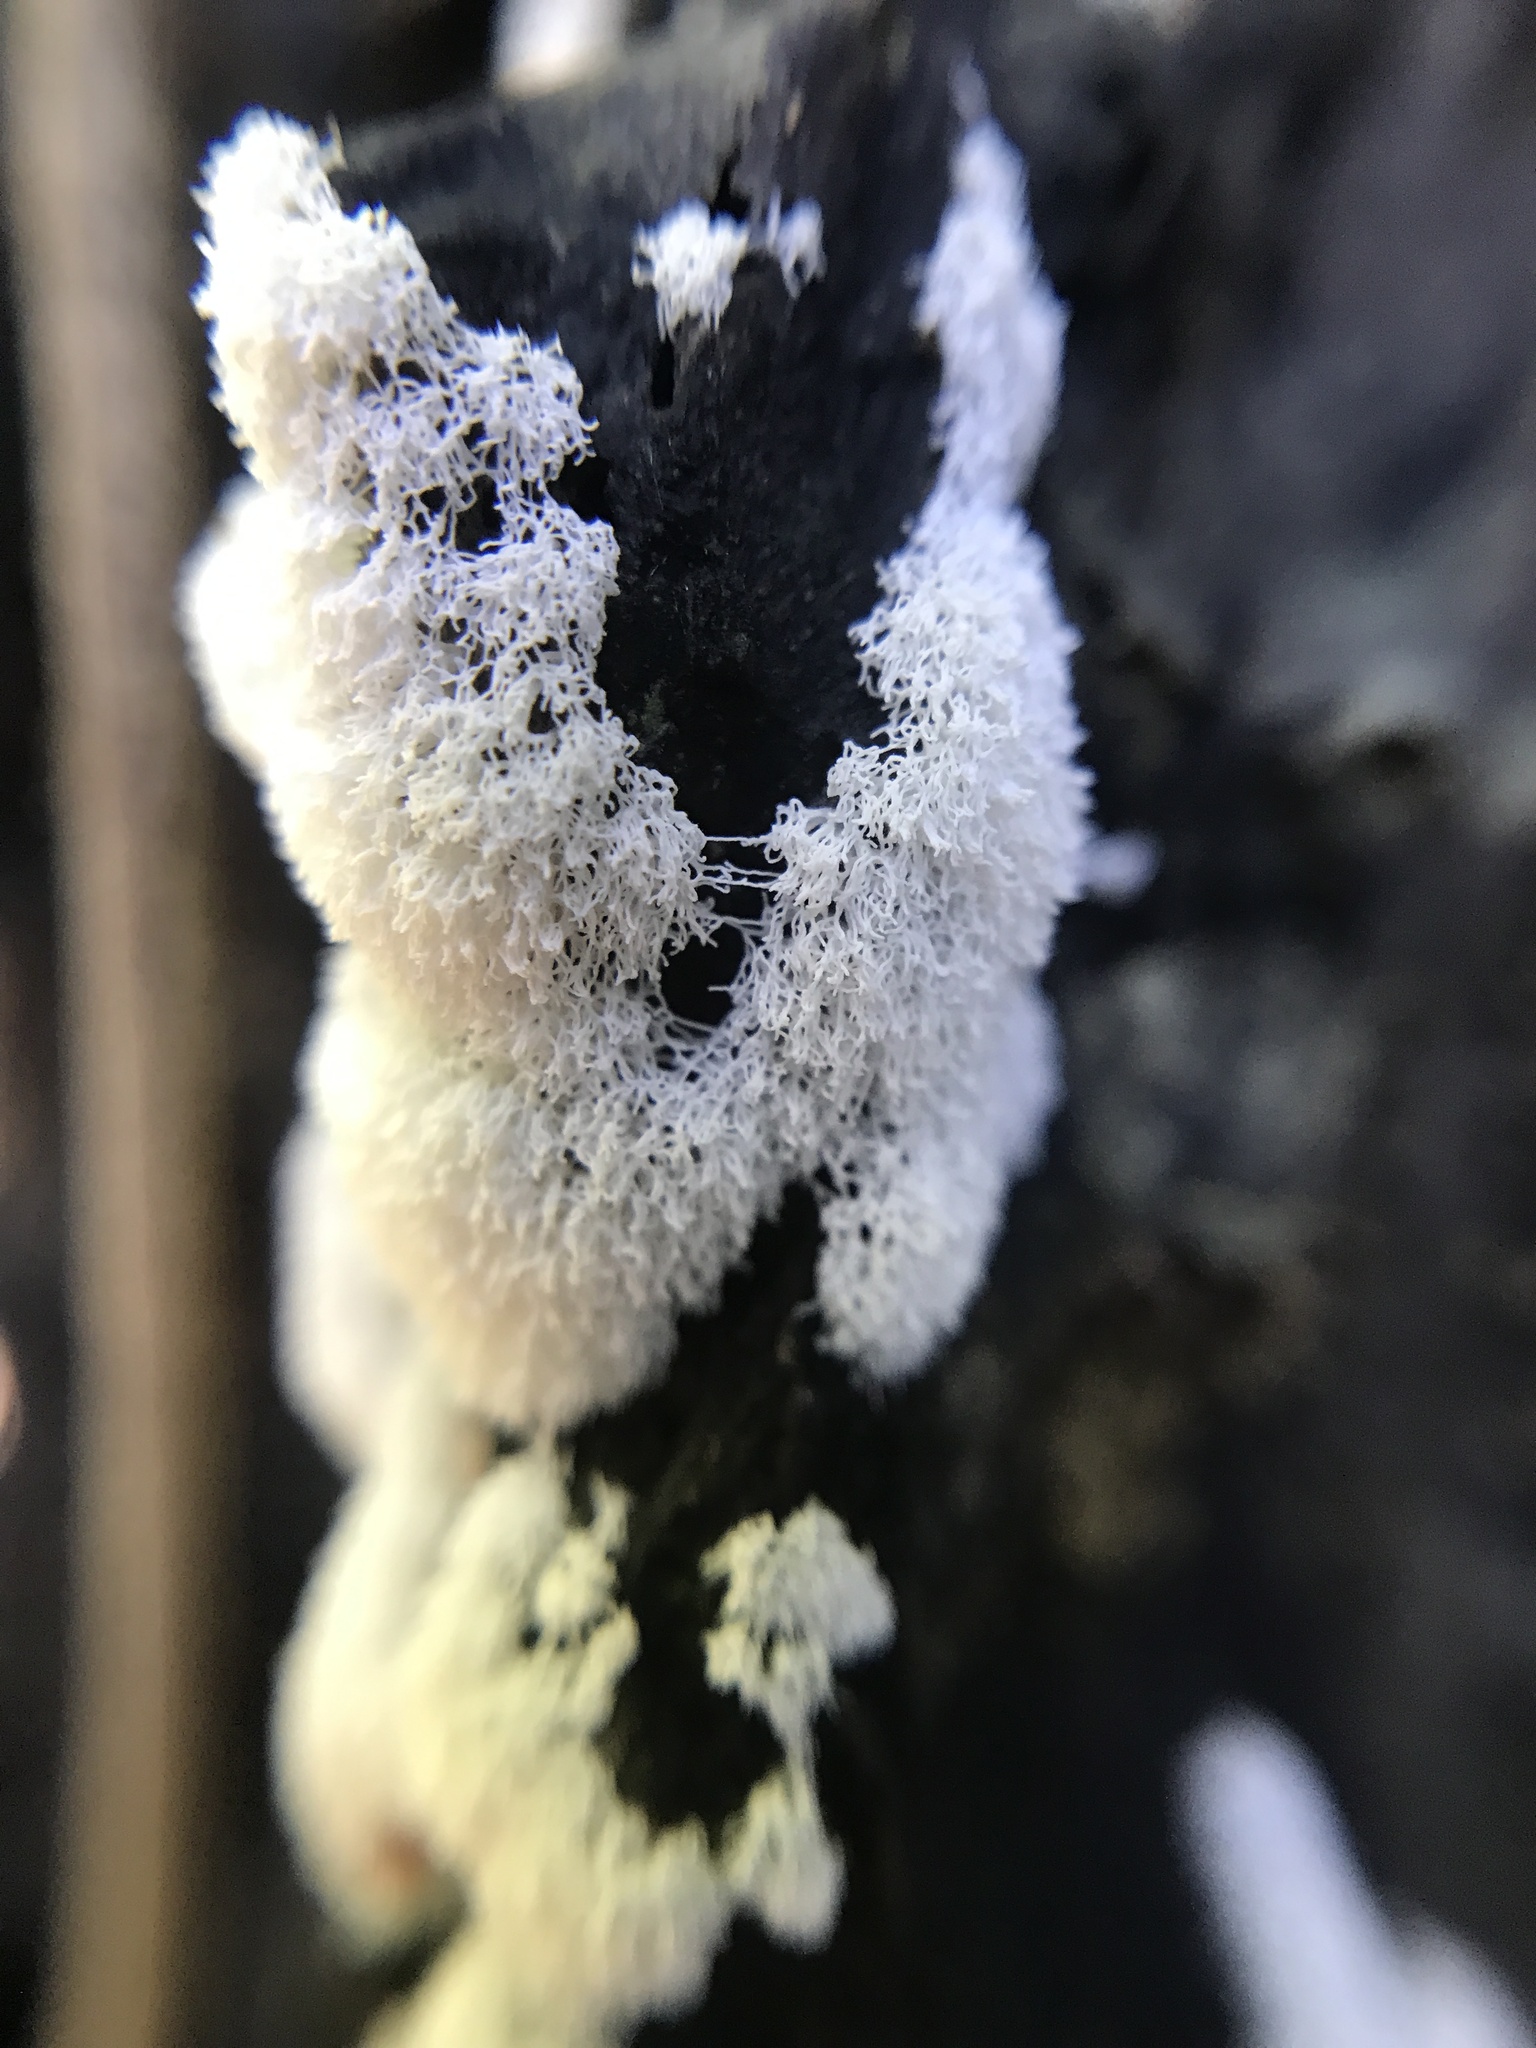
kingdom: Protozoa
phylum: Mycetozoa
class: Protosteliomycetes
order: Ceratiomyxales
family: Ceratiomyxaceae
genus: Ceratiomyxa
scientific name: Ceratiomyxa fruticulosa
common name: Honeycomb coral slime mold
